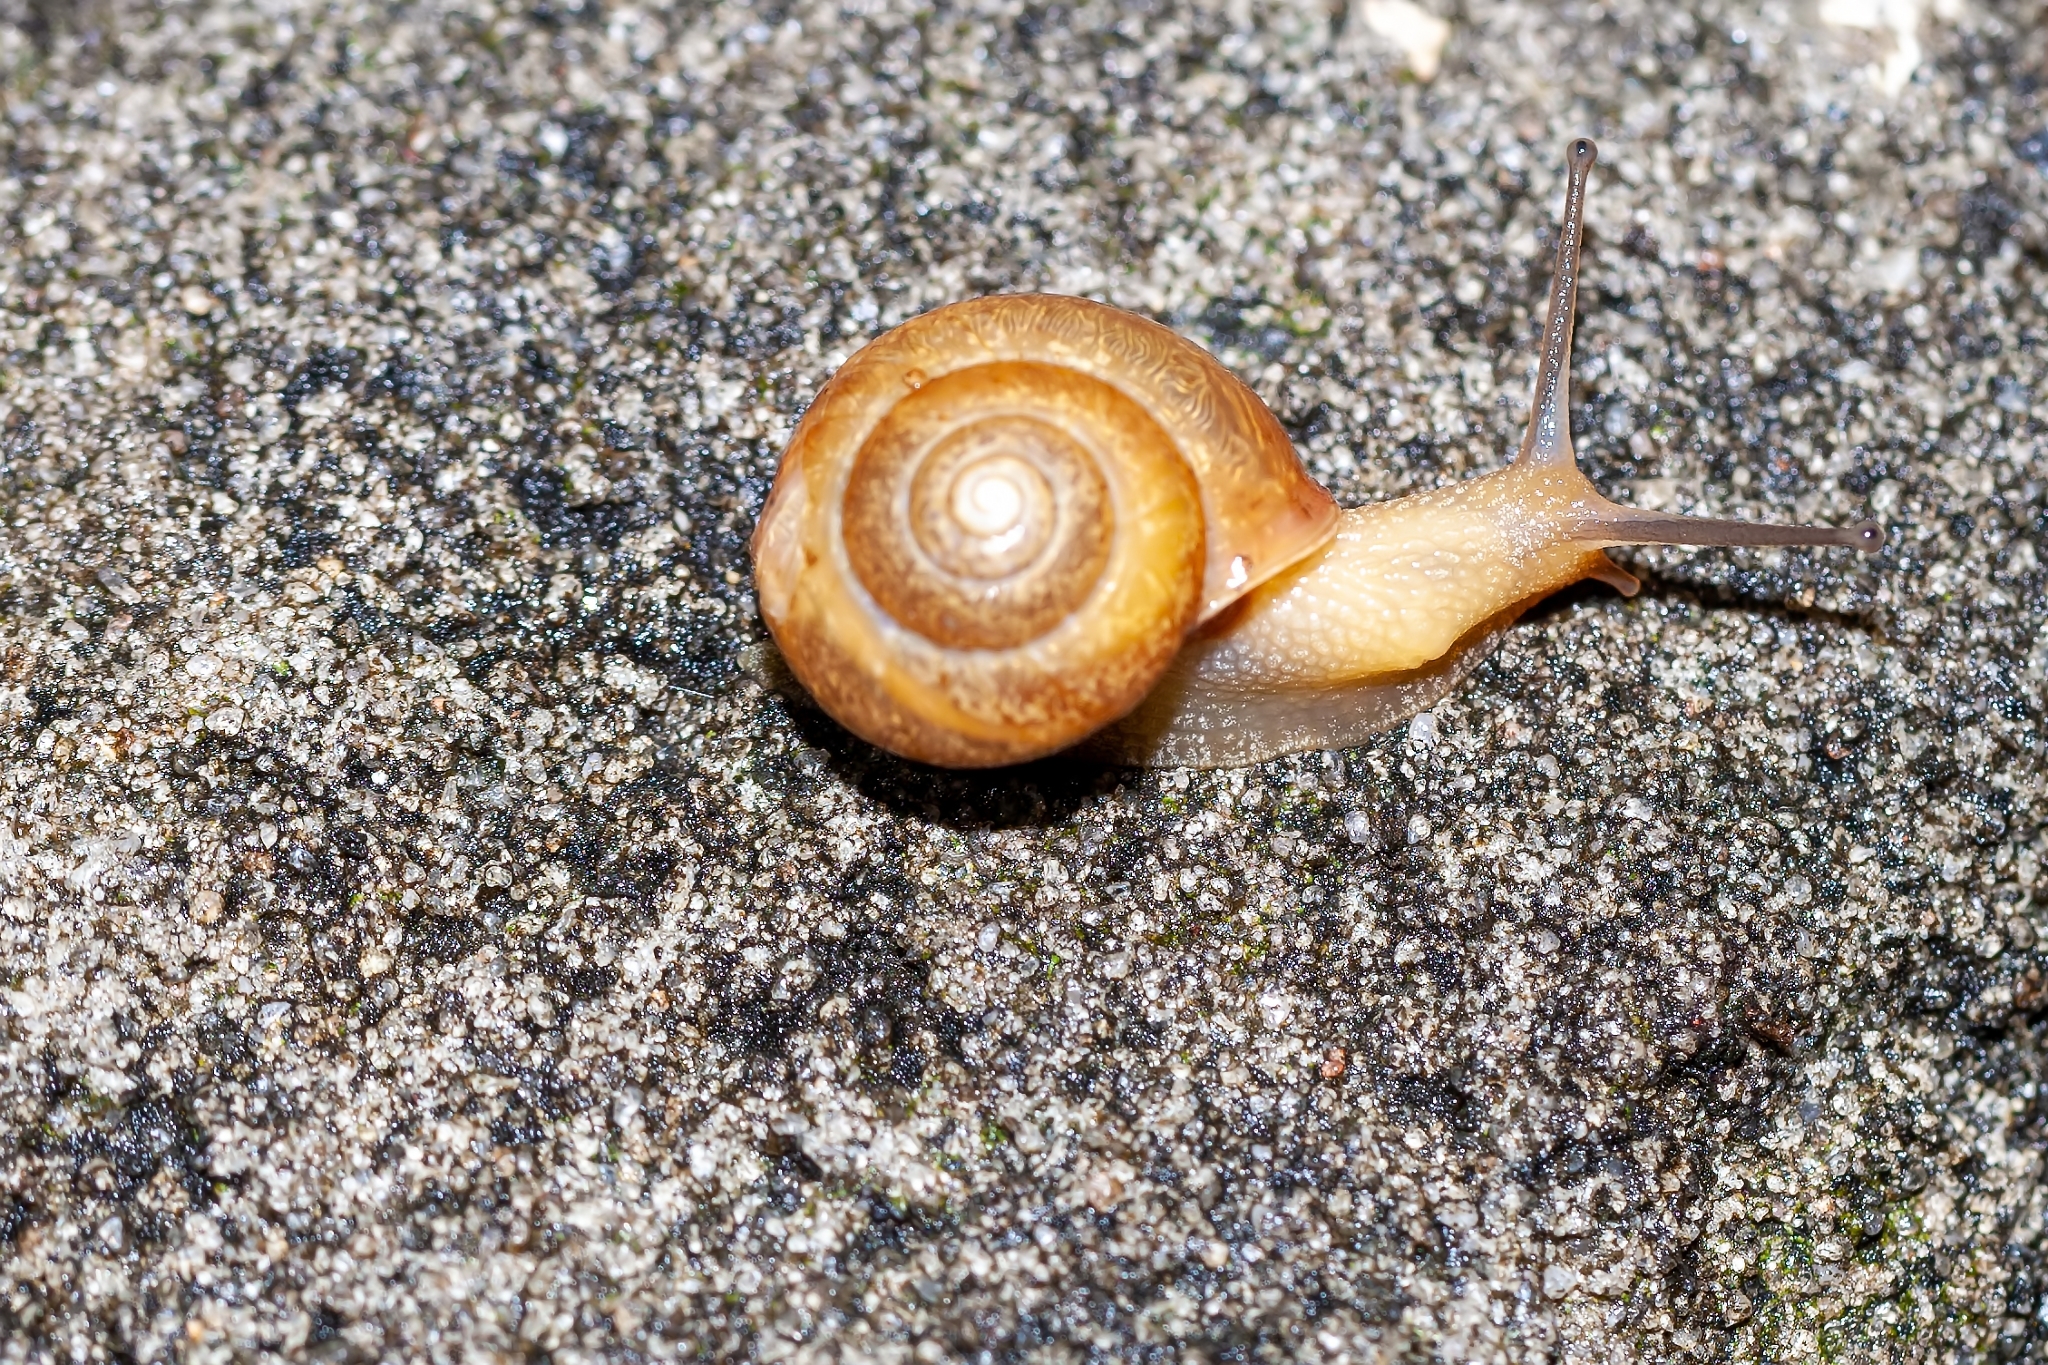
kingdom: Animalia
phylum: Mollusca
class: Gastropoda
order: Stylommatophora
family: Camaenidae
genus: Bradybaena
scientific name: Bradybaena similaris
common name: Asian trampsnail
